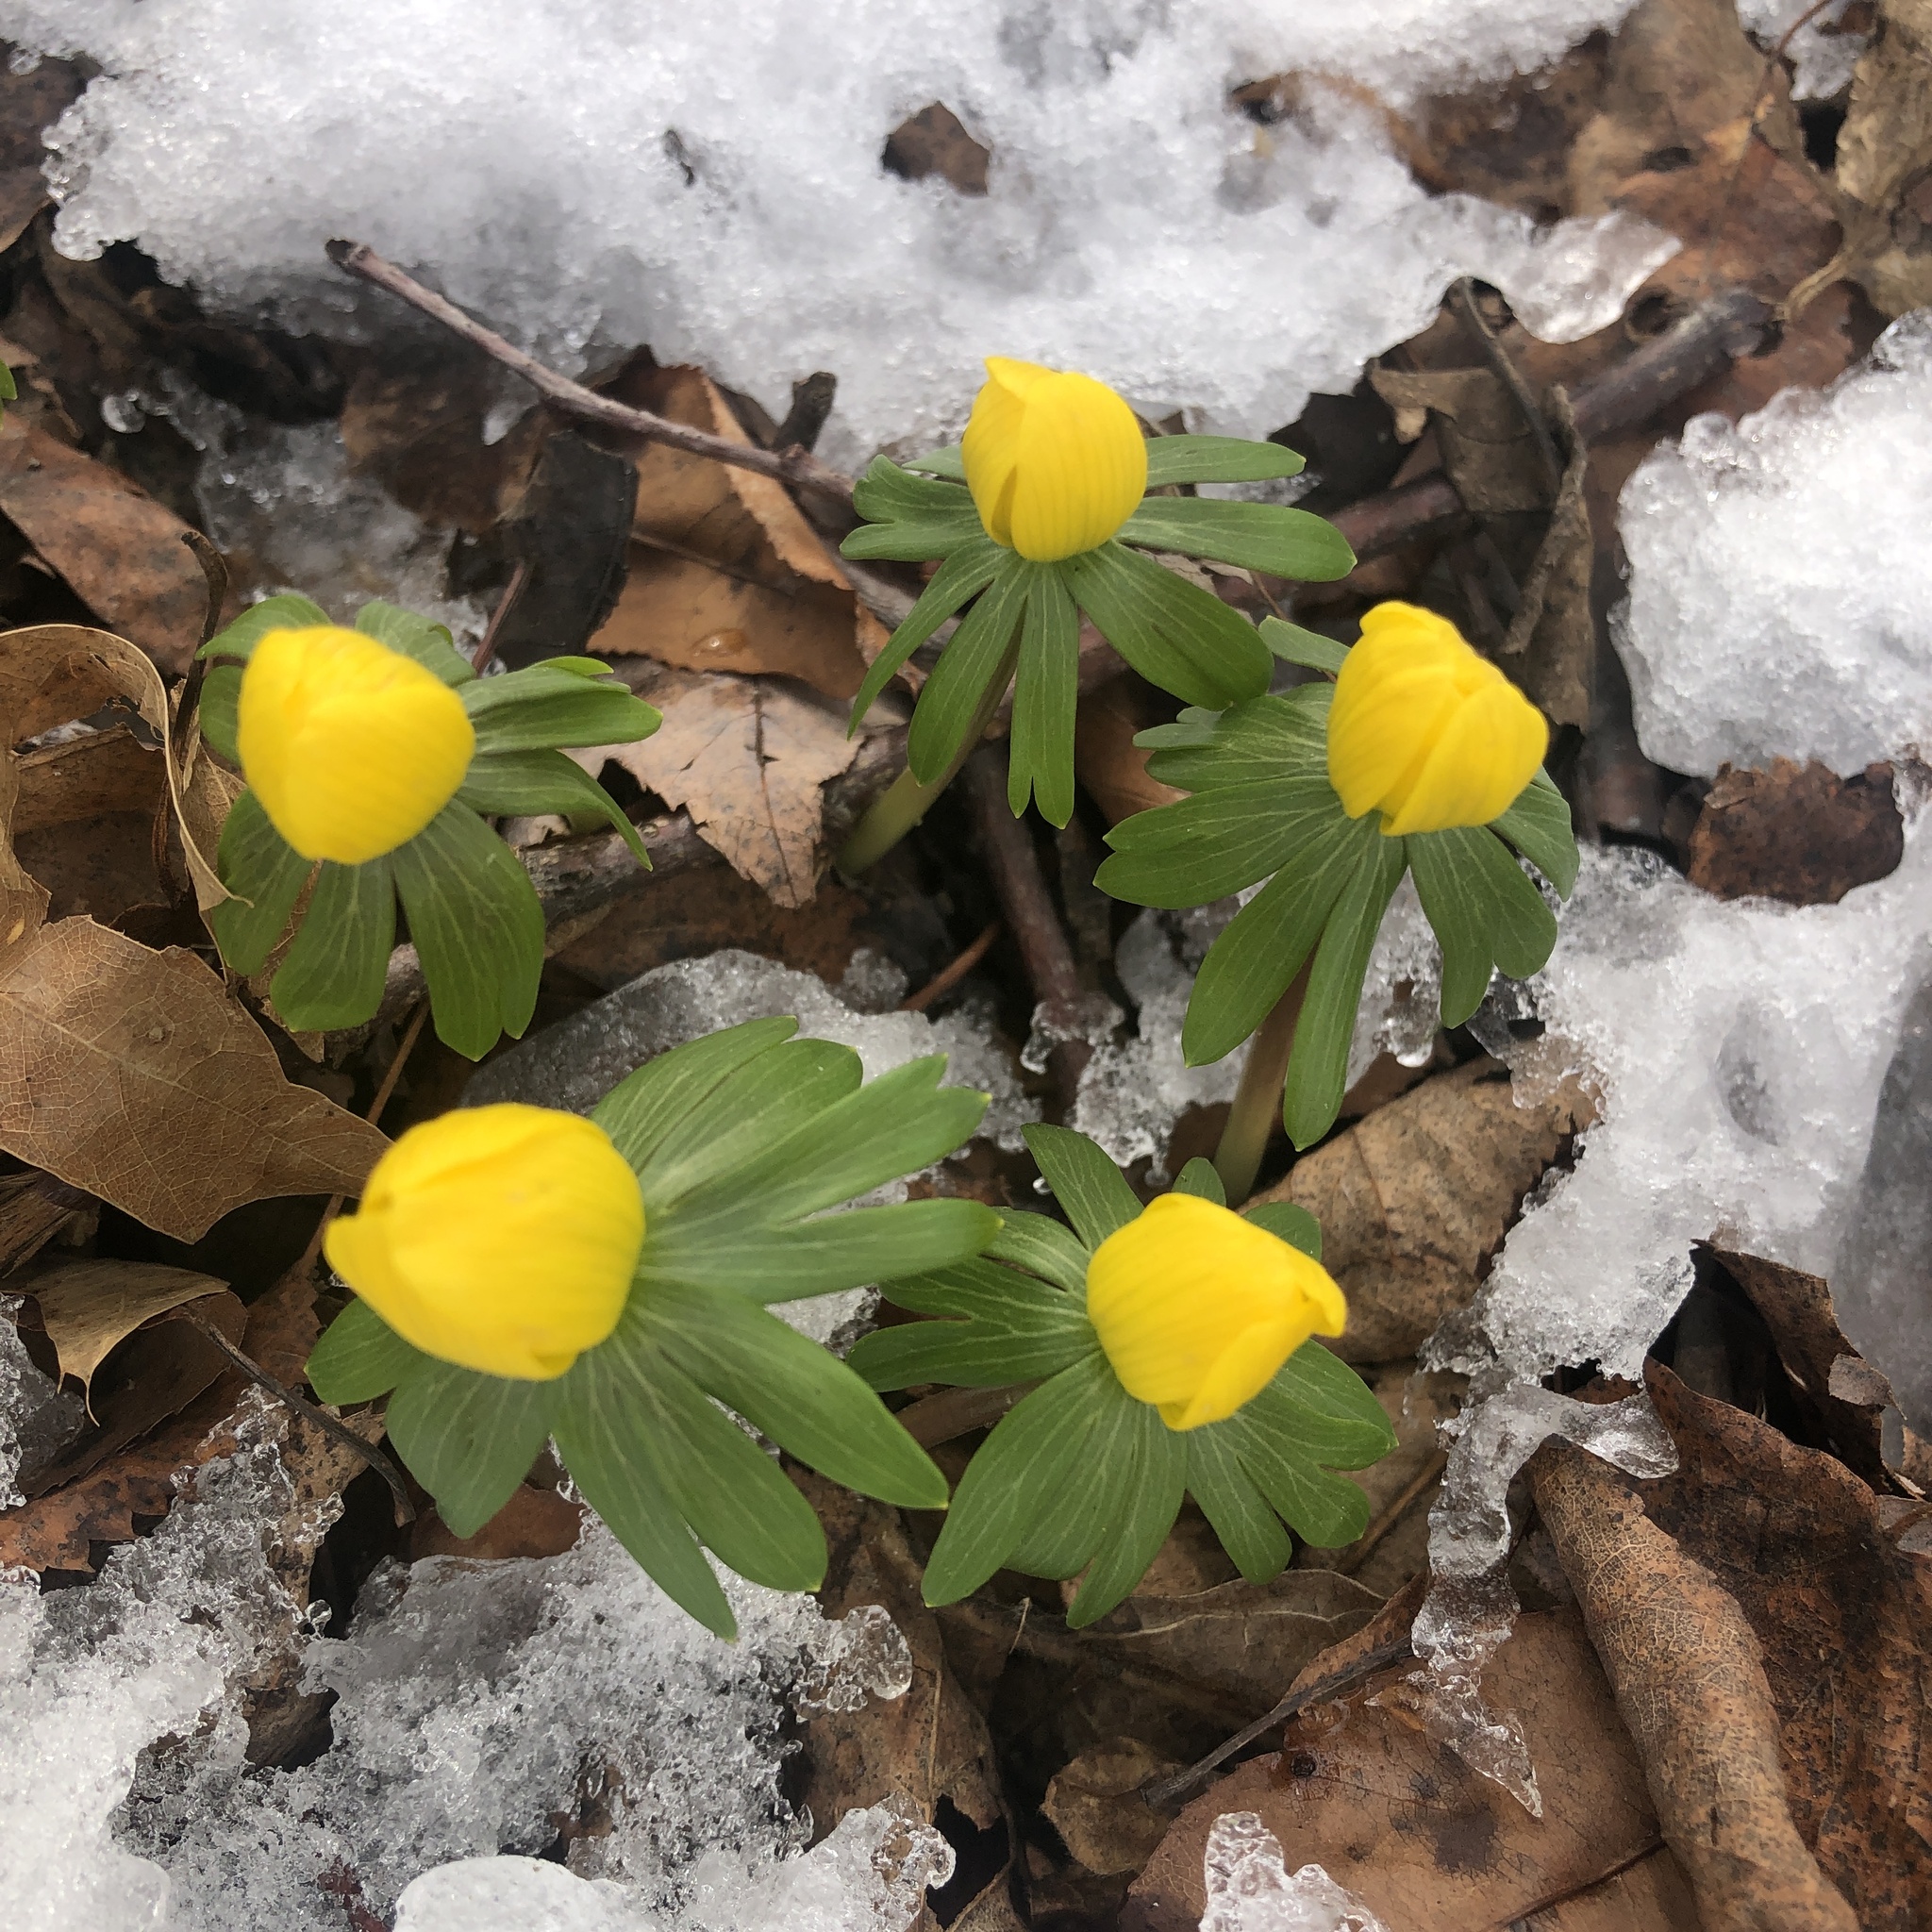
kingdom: Plantae
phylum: Tracheophyta
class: Magnoliopsida
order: Ranunculales
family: Ranunculaceae
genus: Eranthis
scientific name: Eranthis hyemalis
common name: Winter aconite
